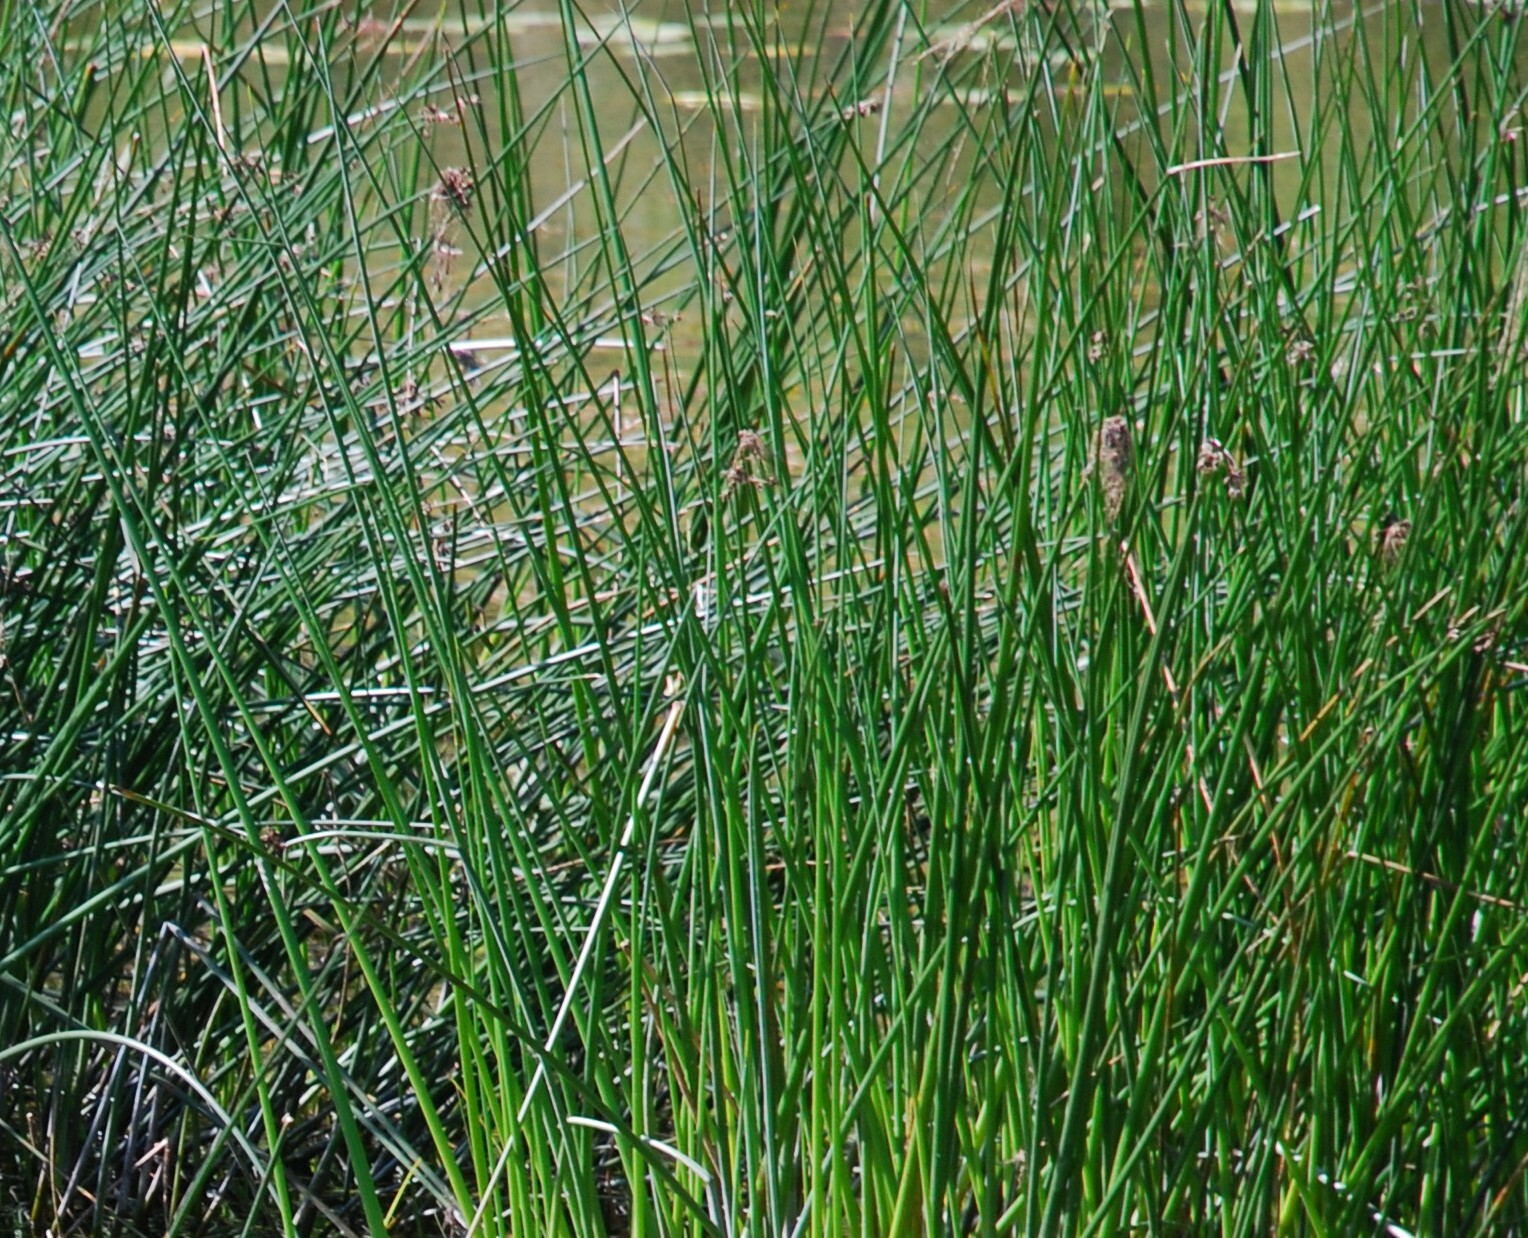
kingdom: Plantae
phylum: Tracheophyta
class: Liliopsida
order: Poales
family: Cyperaceae
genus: Schoenoplectus
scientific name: Schoenoplectus lacustris
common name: Common club-rush
